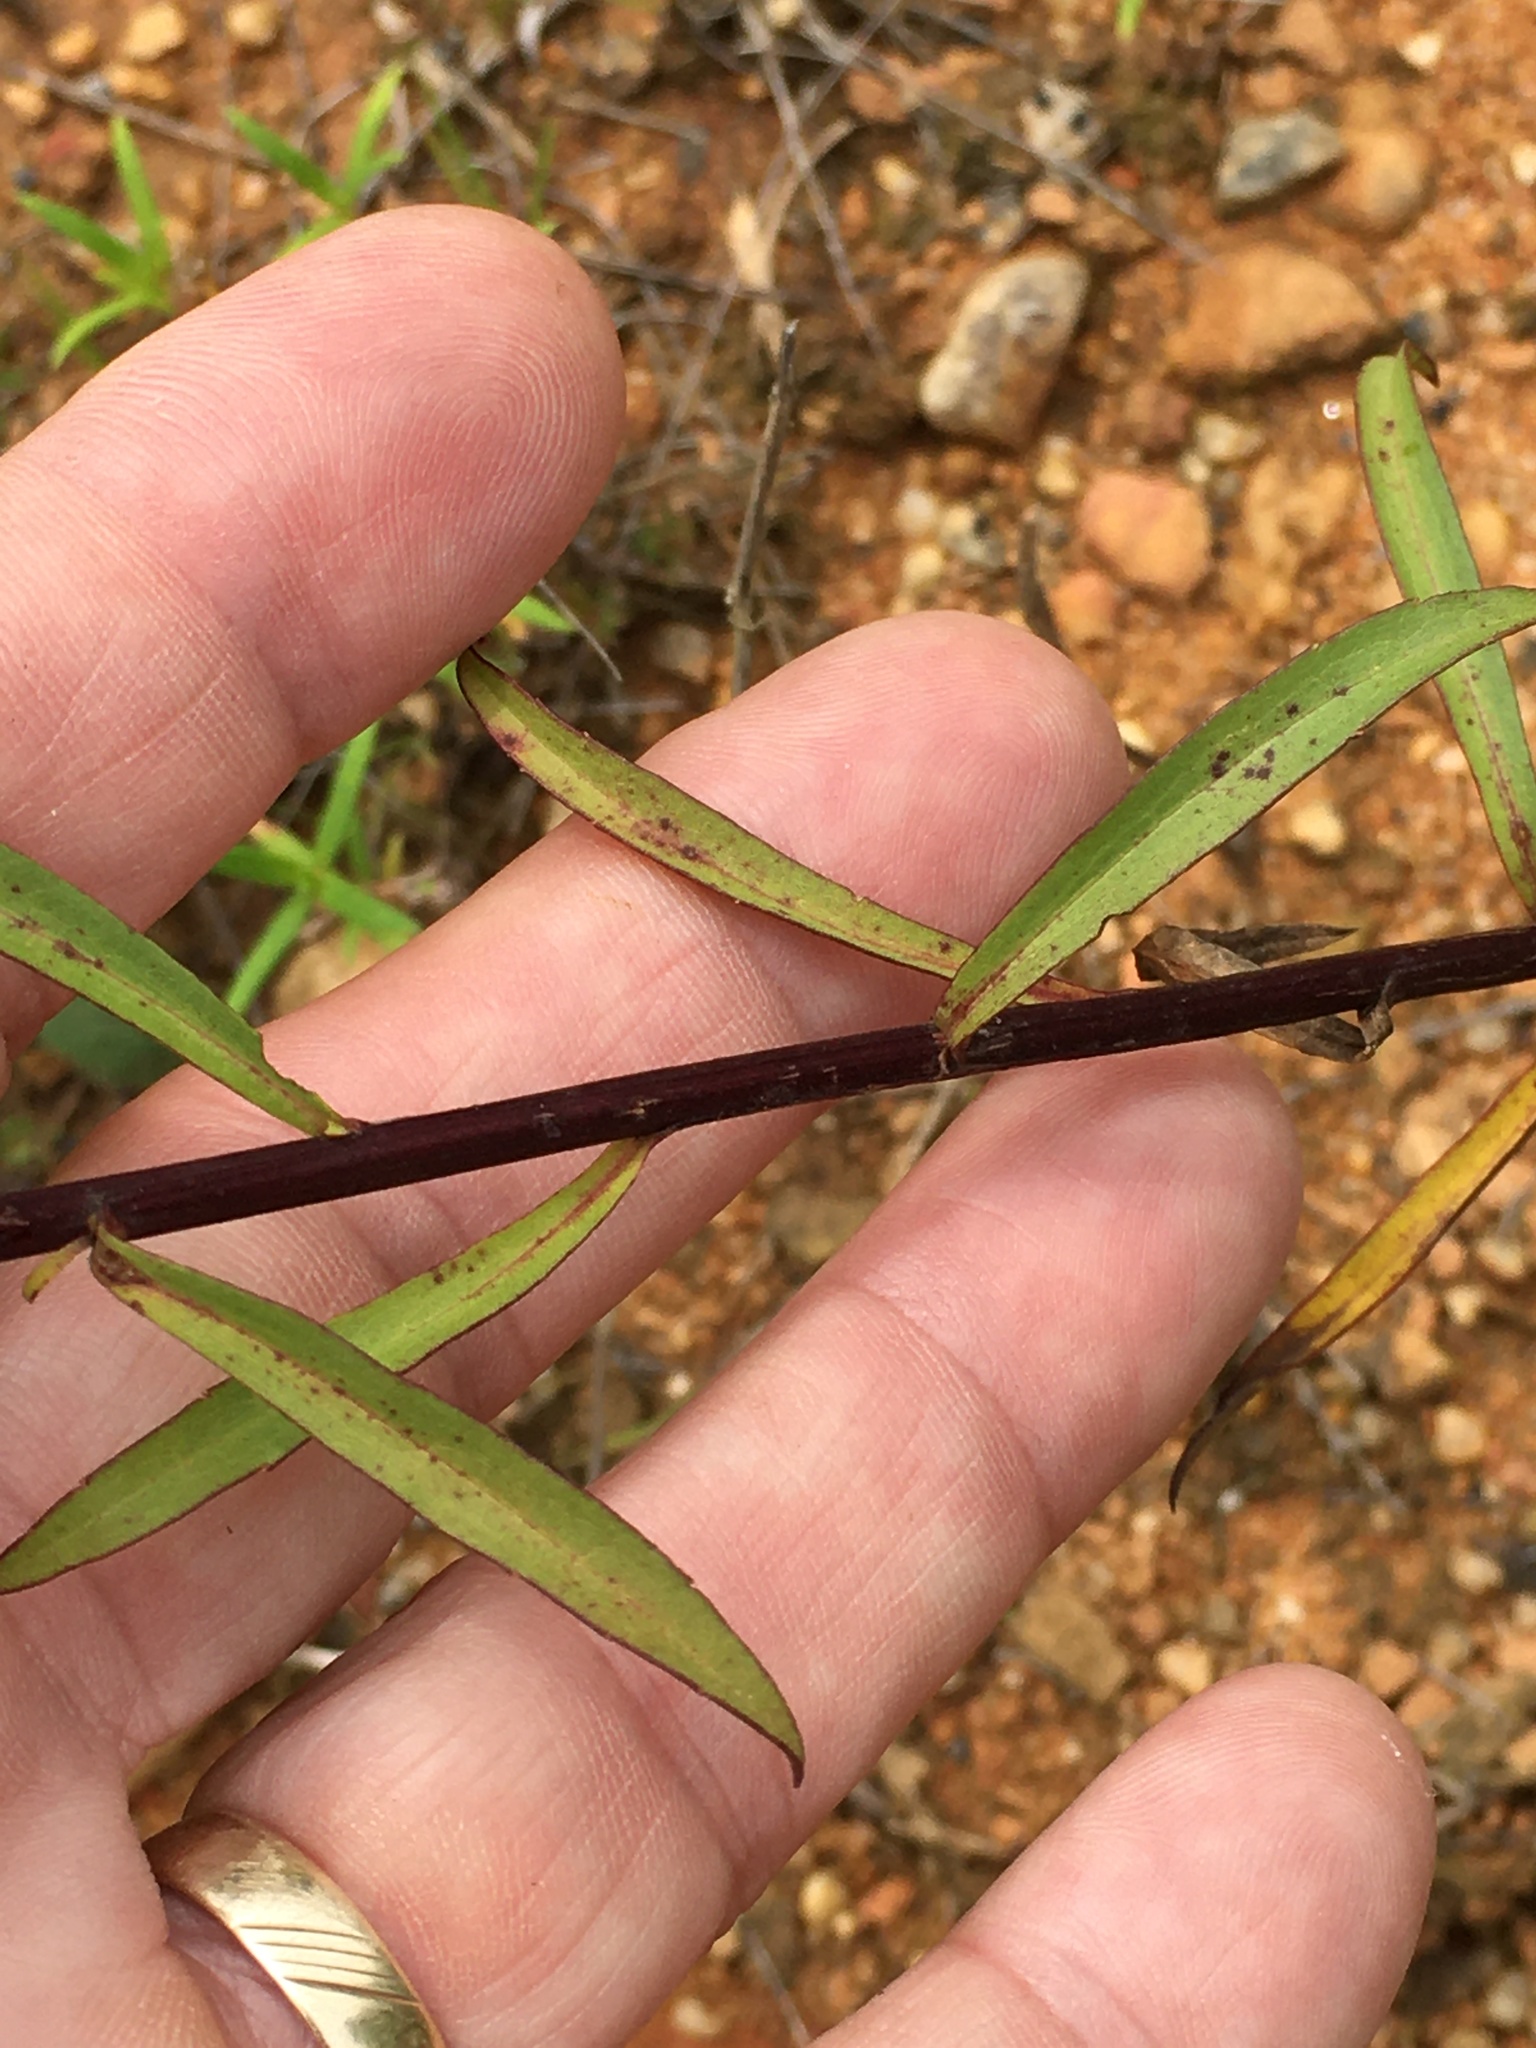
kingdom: Plantae
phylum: Tracheophyta
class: Magnoliopsida
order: Asterales
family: Asteraceae
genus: Solidago
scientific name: Solidago pinetorum
